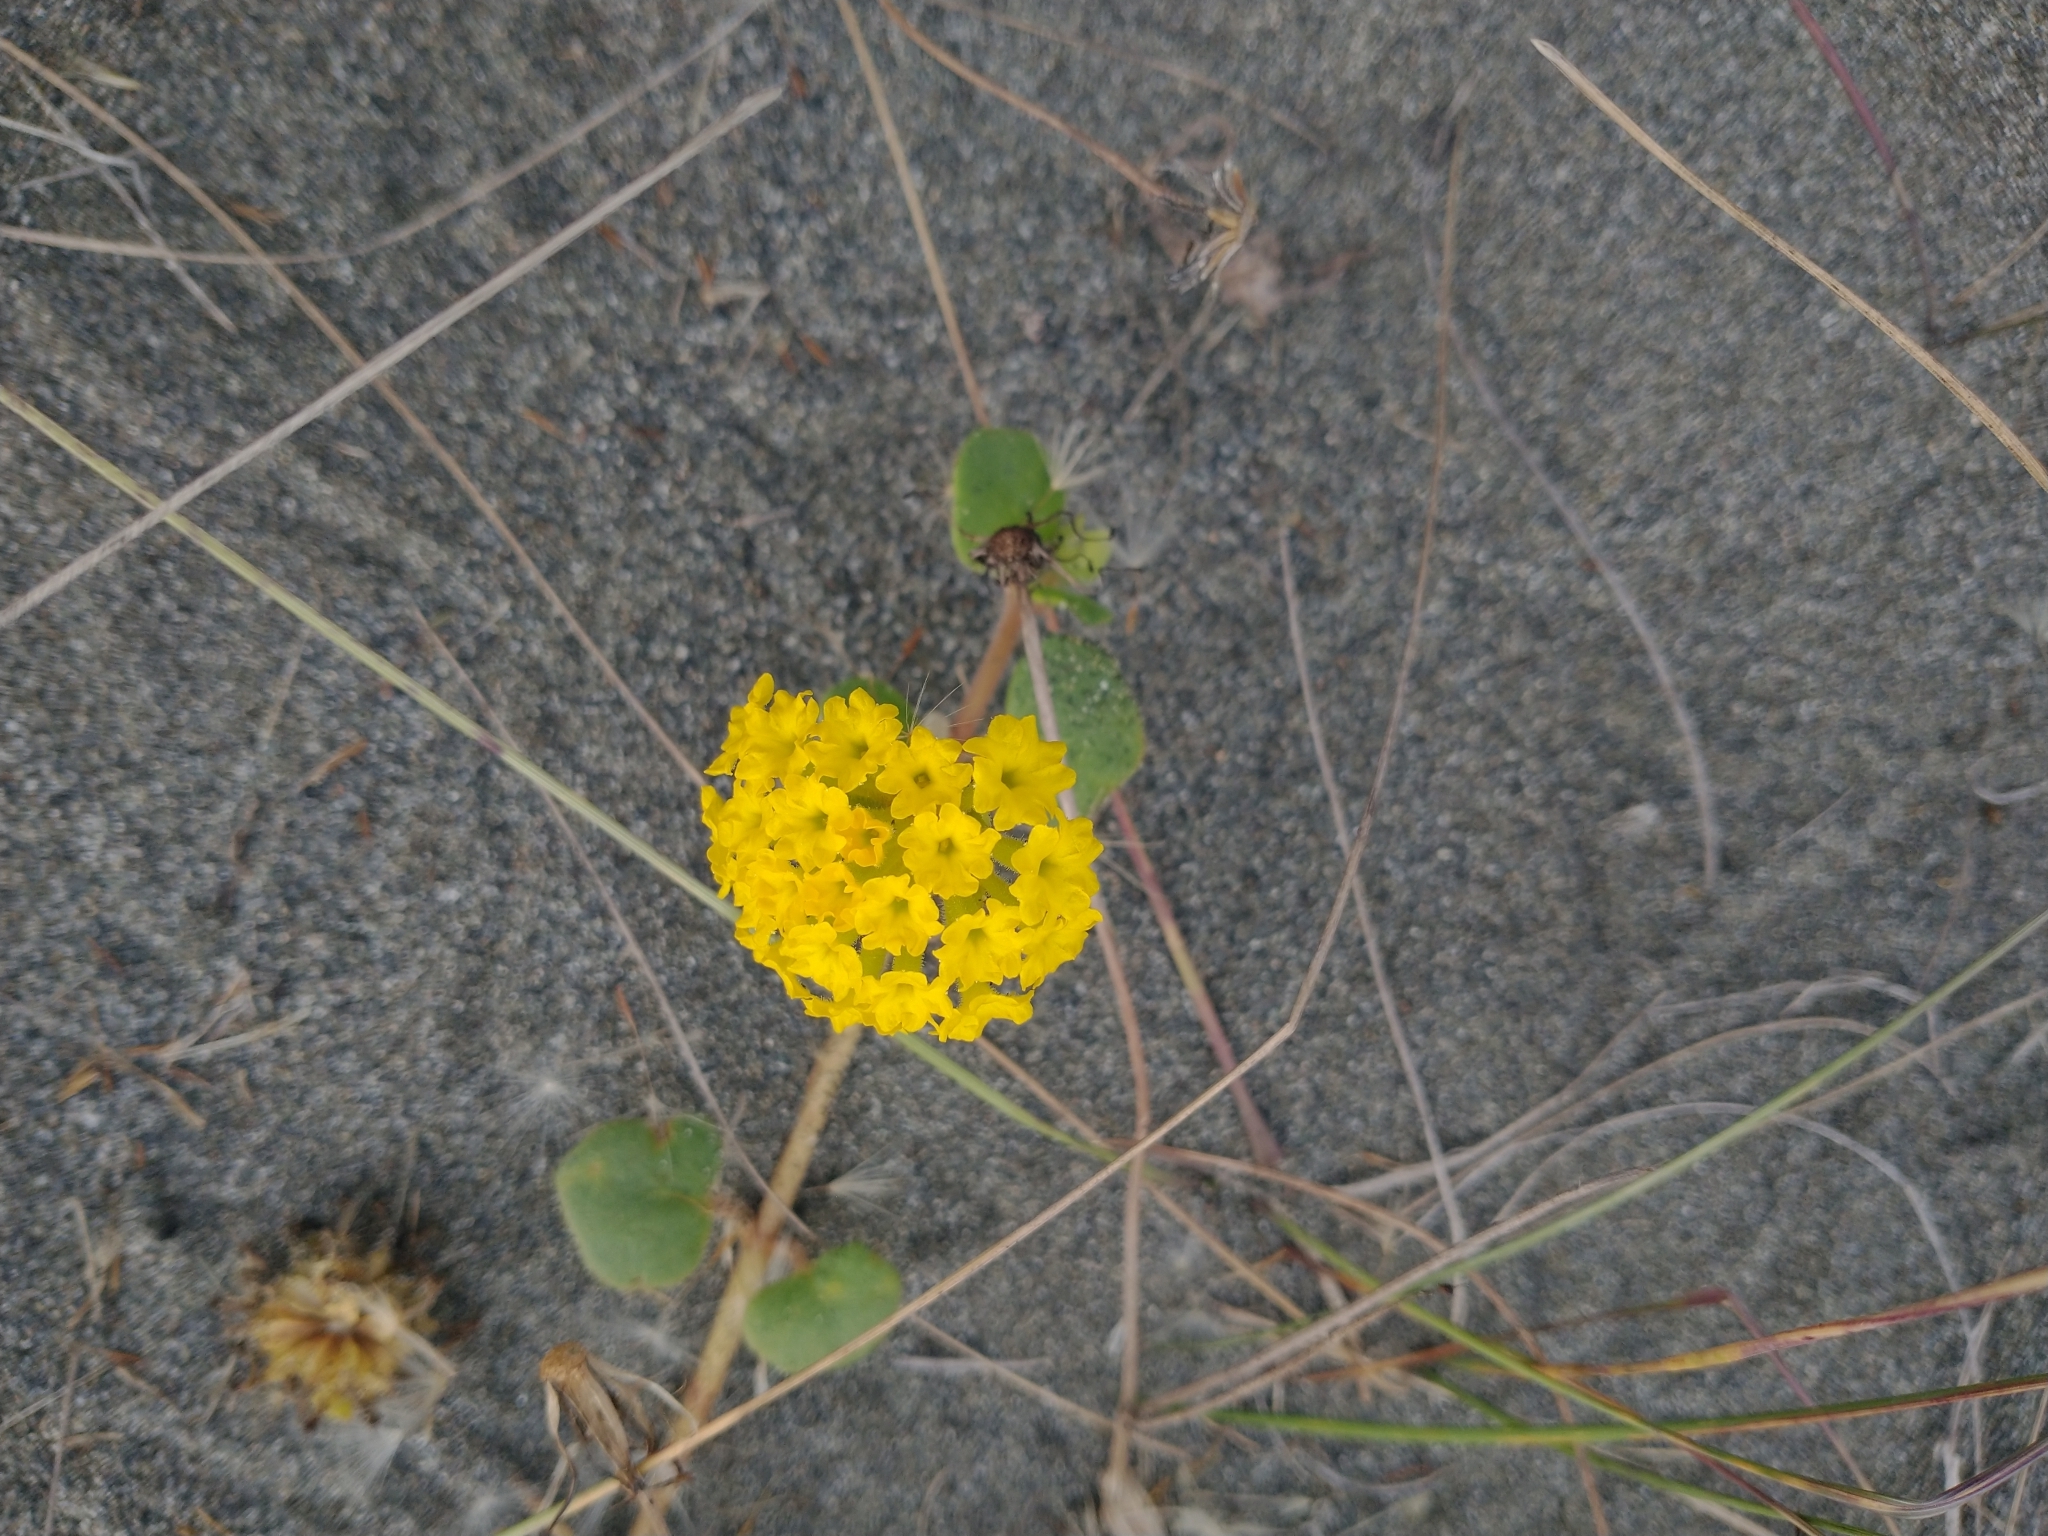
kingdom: Plantae
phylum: Tracheophyta
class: Magnoliopsida
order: Caryophyllales
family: Nyctaginaceae
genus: Abronia
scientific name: Abronia latifolia
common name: Yellow sand-verbena
